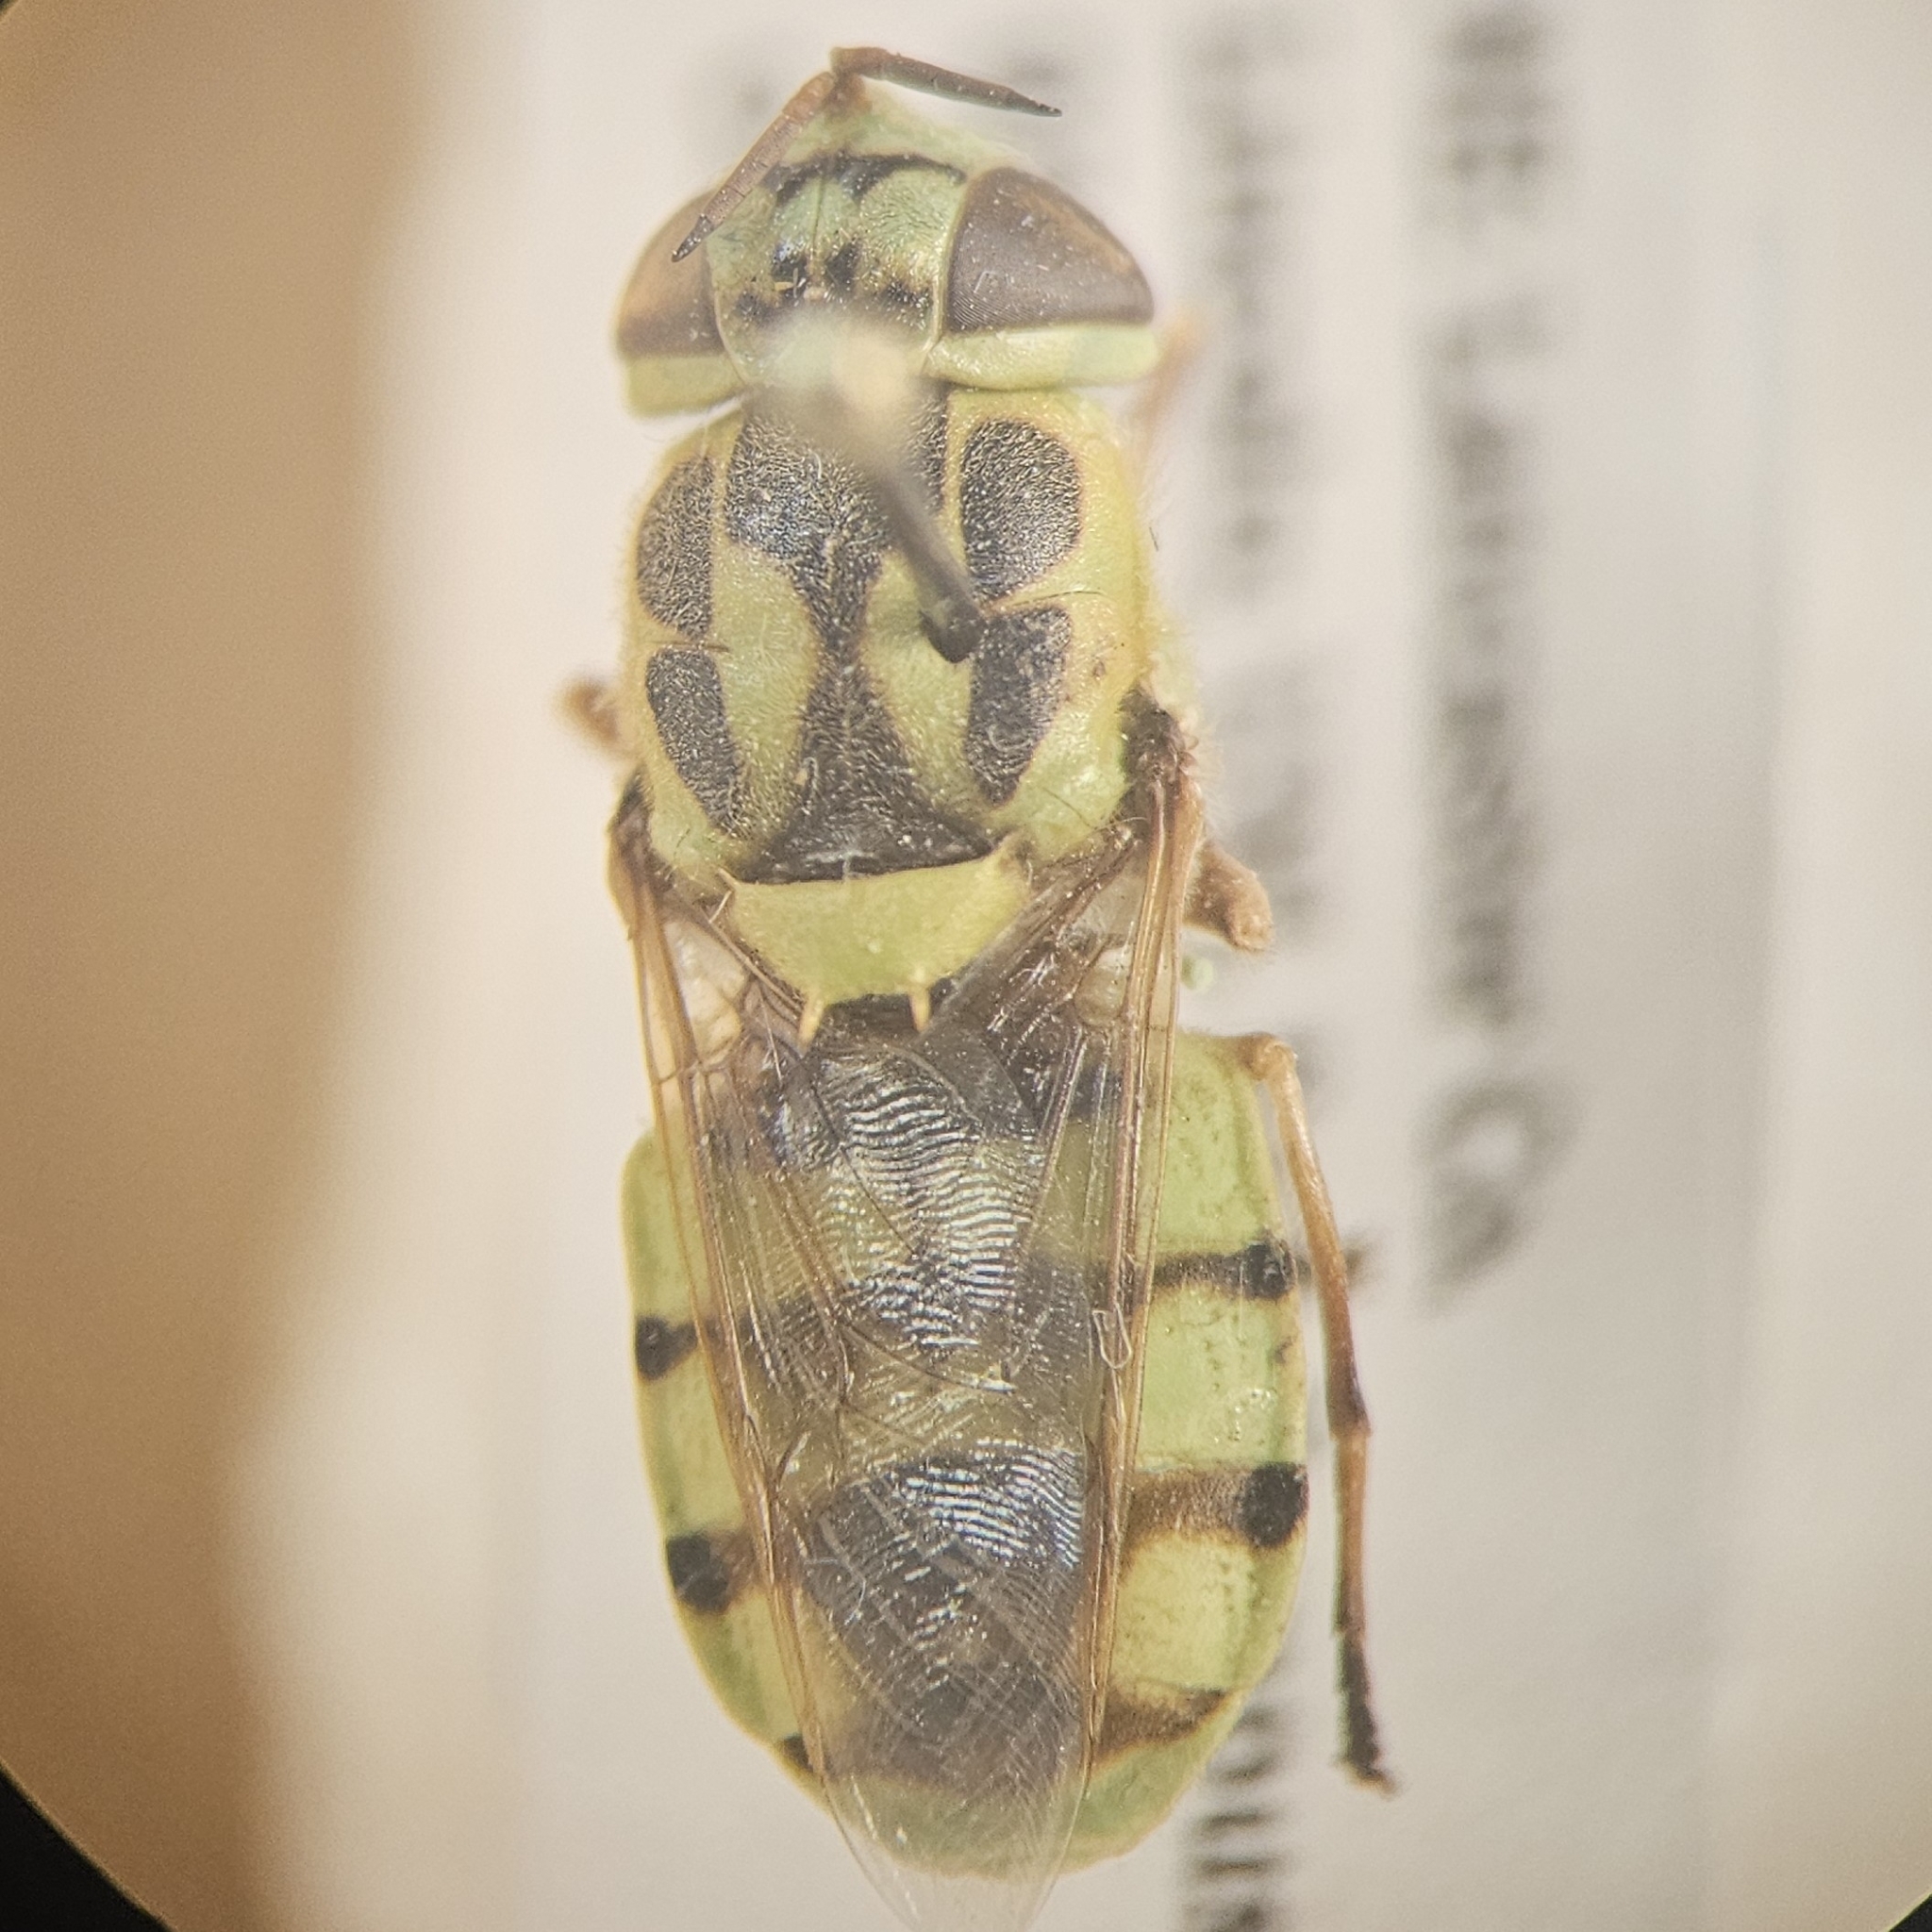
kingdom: Animalia
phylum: Arthropoda
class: Insecta
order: Diptera
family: Stratiomyidae
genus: Hedriodiscus
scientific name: Hedriodiscus binotatus
